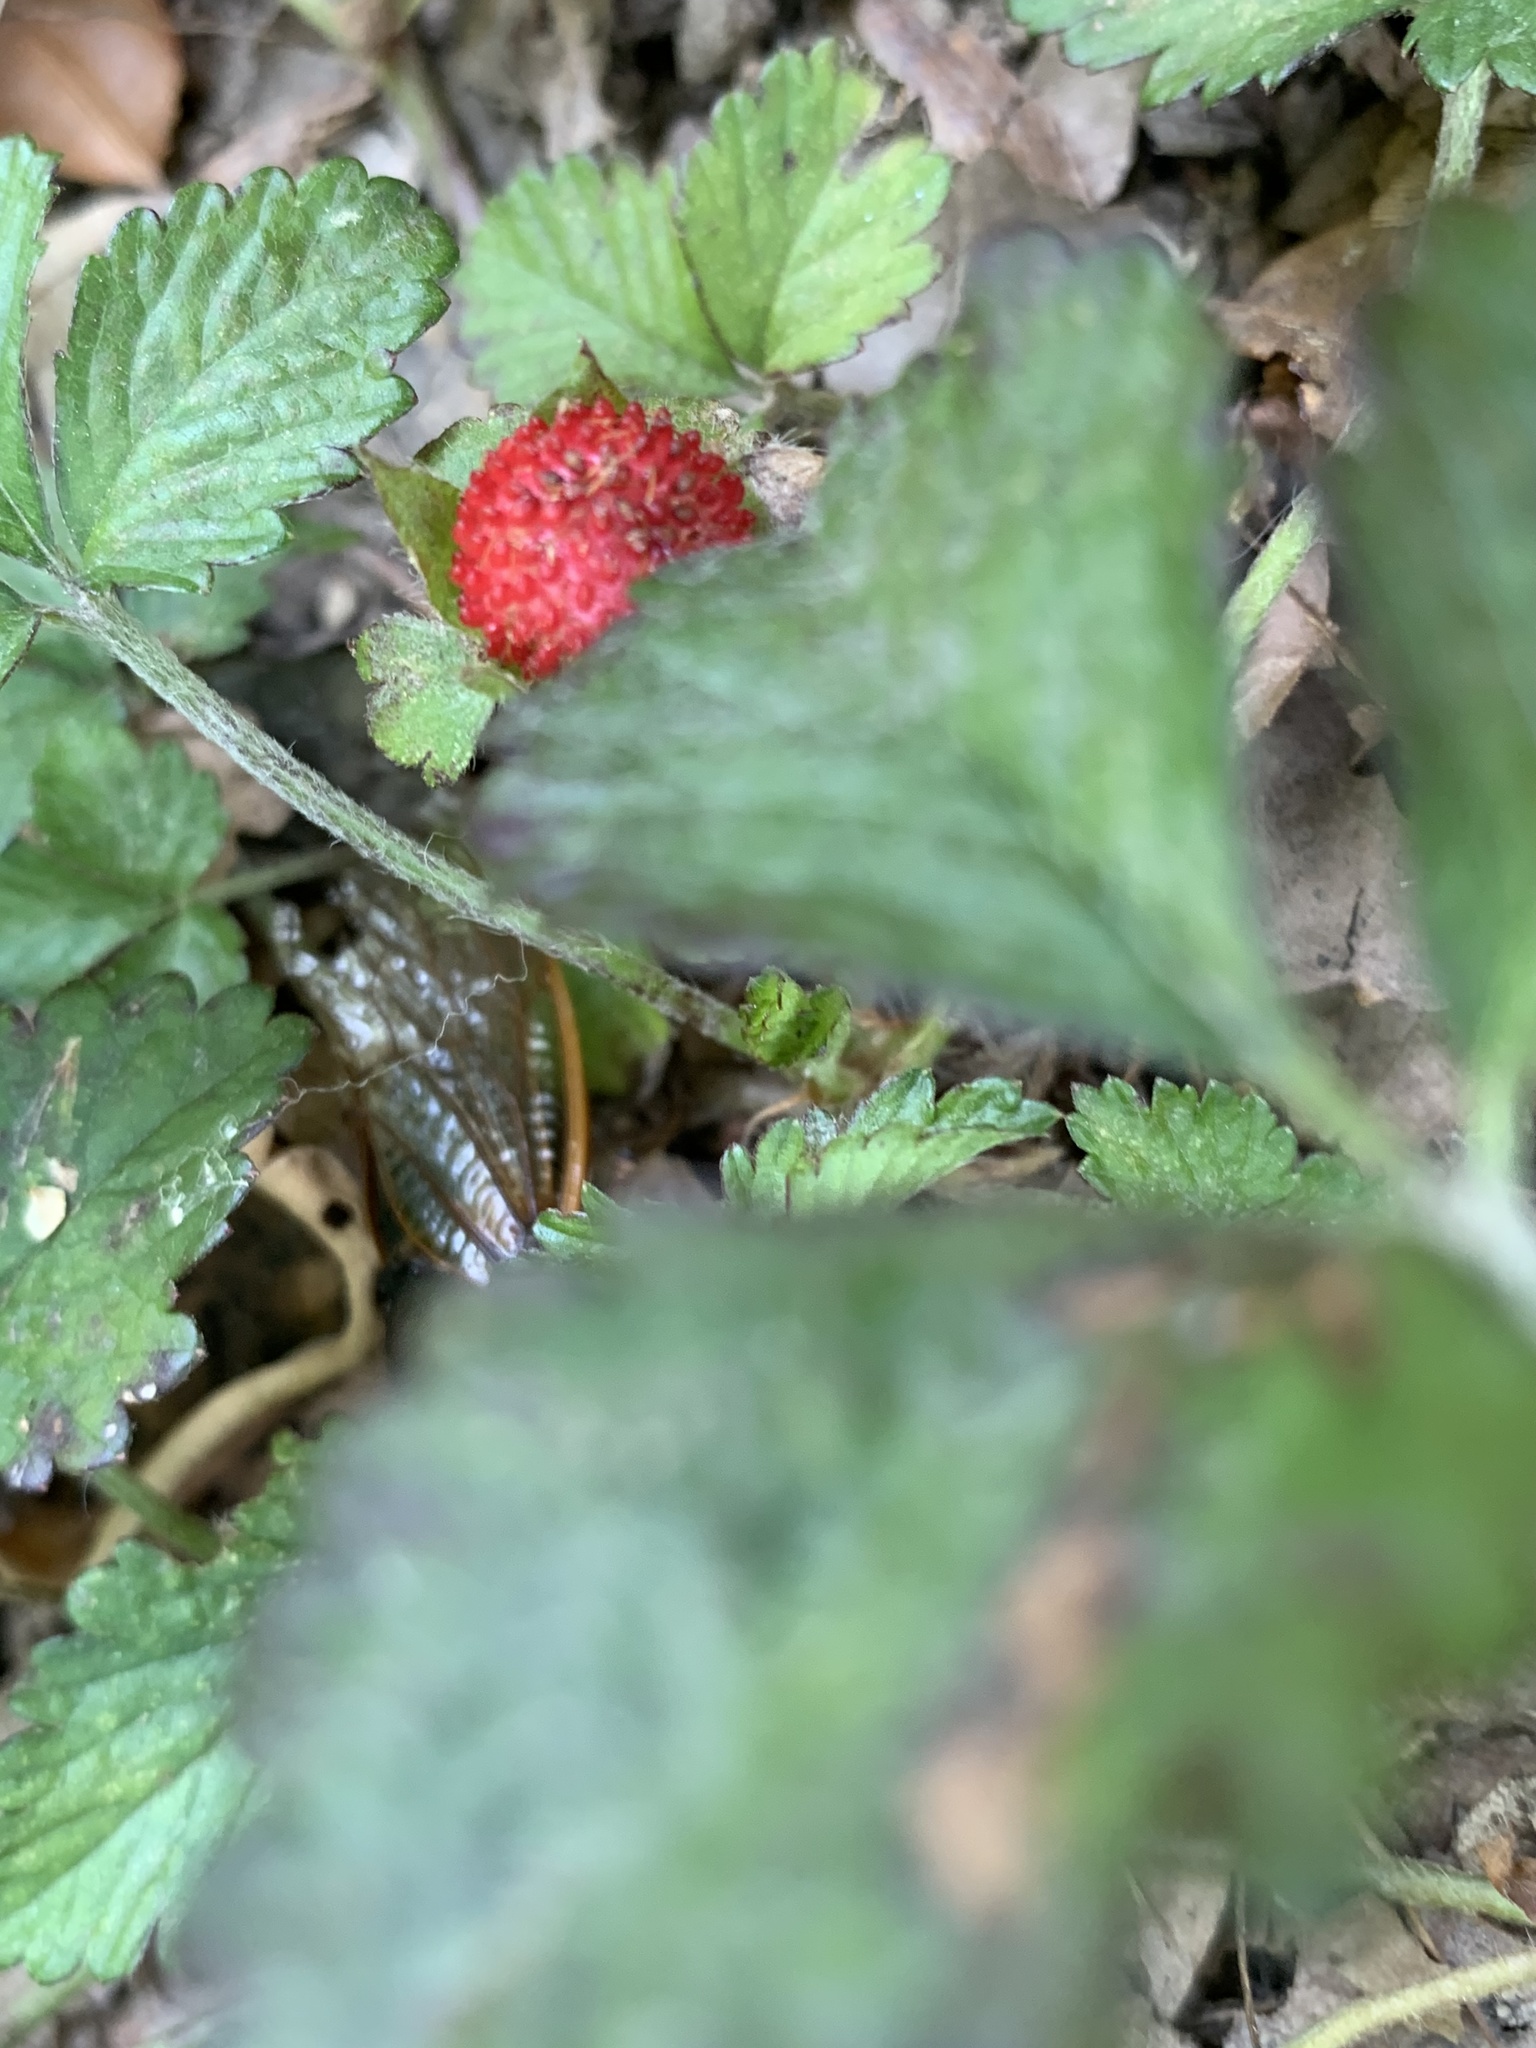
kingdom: Plantae
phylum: Tracheophyta
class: Magnoliopsida
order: Rosales
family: Rosaceae
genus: Potentilla
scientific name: Potentilla indica
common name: Yellow-flowered strawberry
